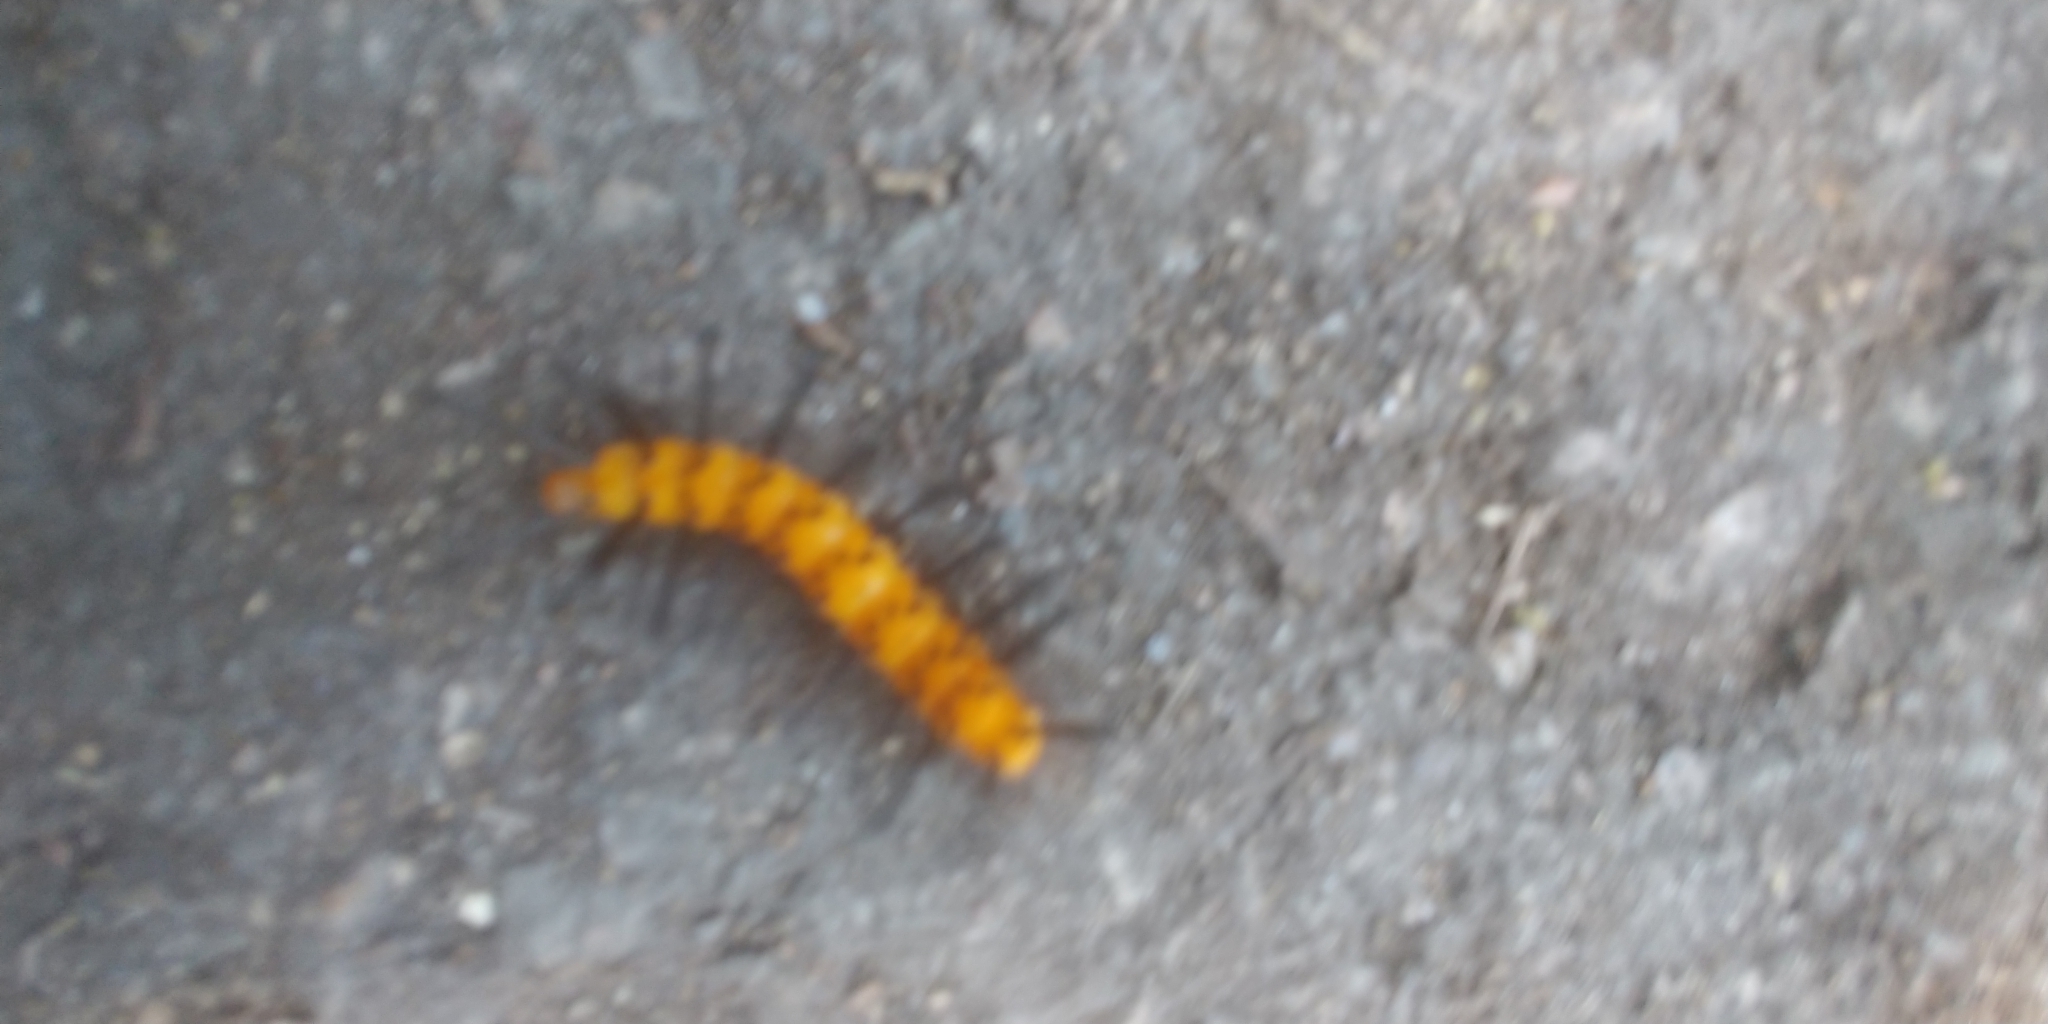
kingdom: Animalia
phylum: Arthropoda
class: Insecta
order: Lepidoptera
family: Erebidae
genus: Syntomeida
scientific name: Syntomeida epilais
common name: Polka-dot wasp moth
